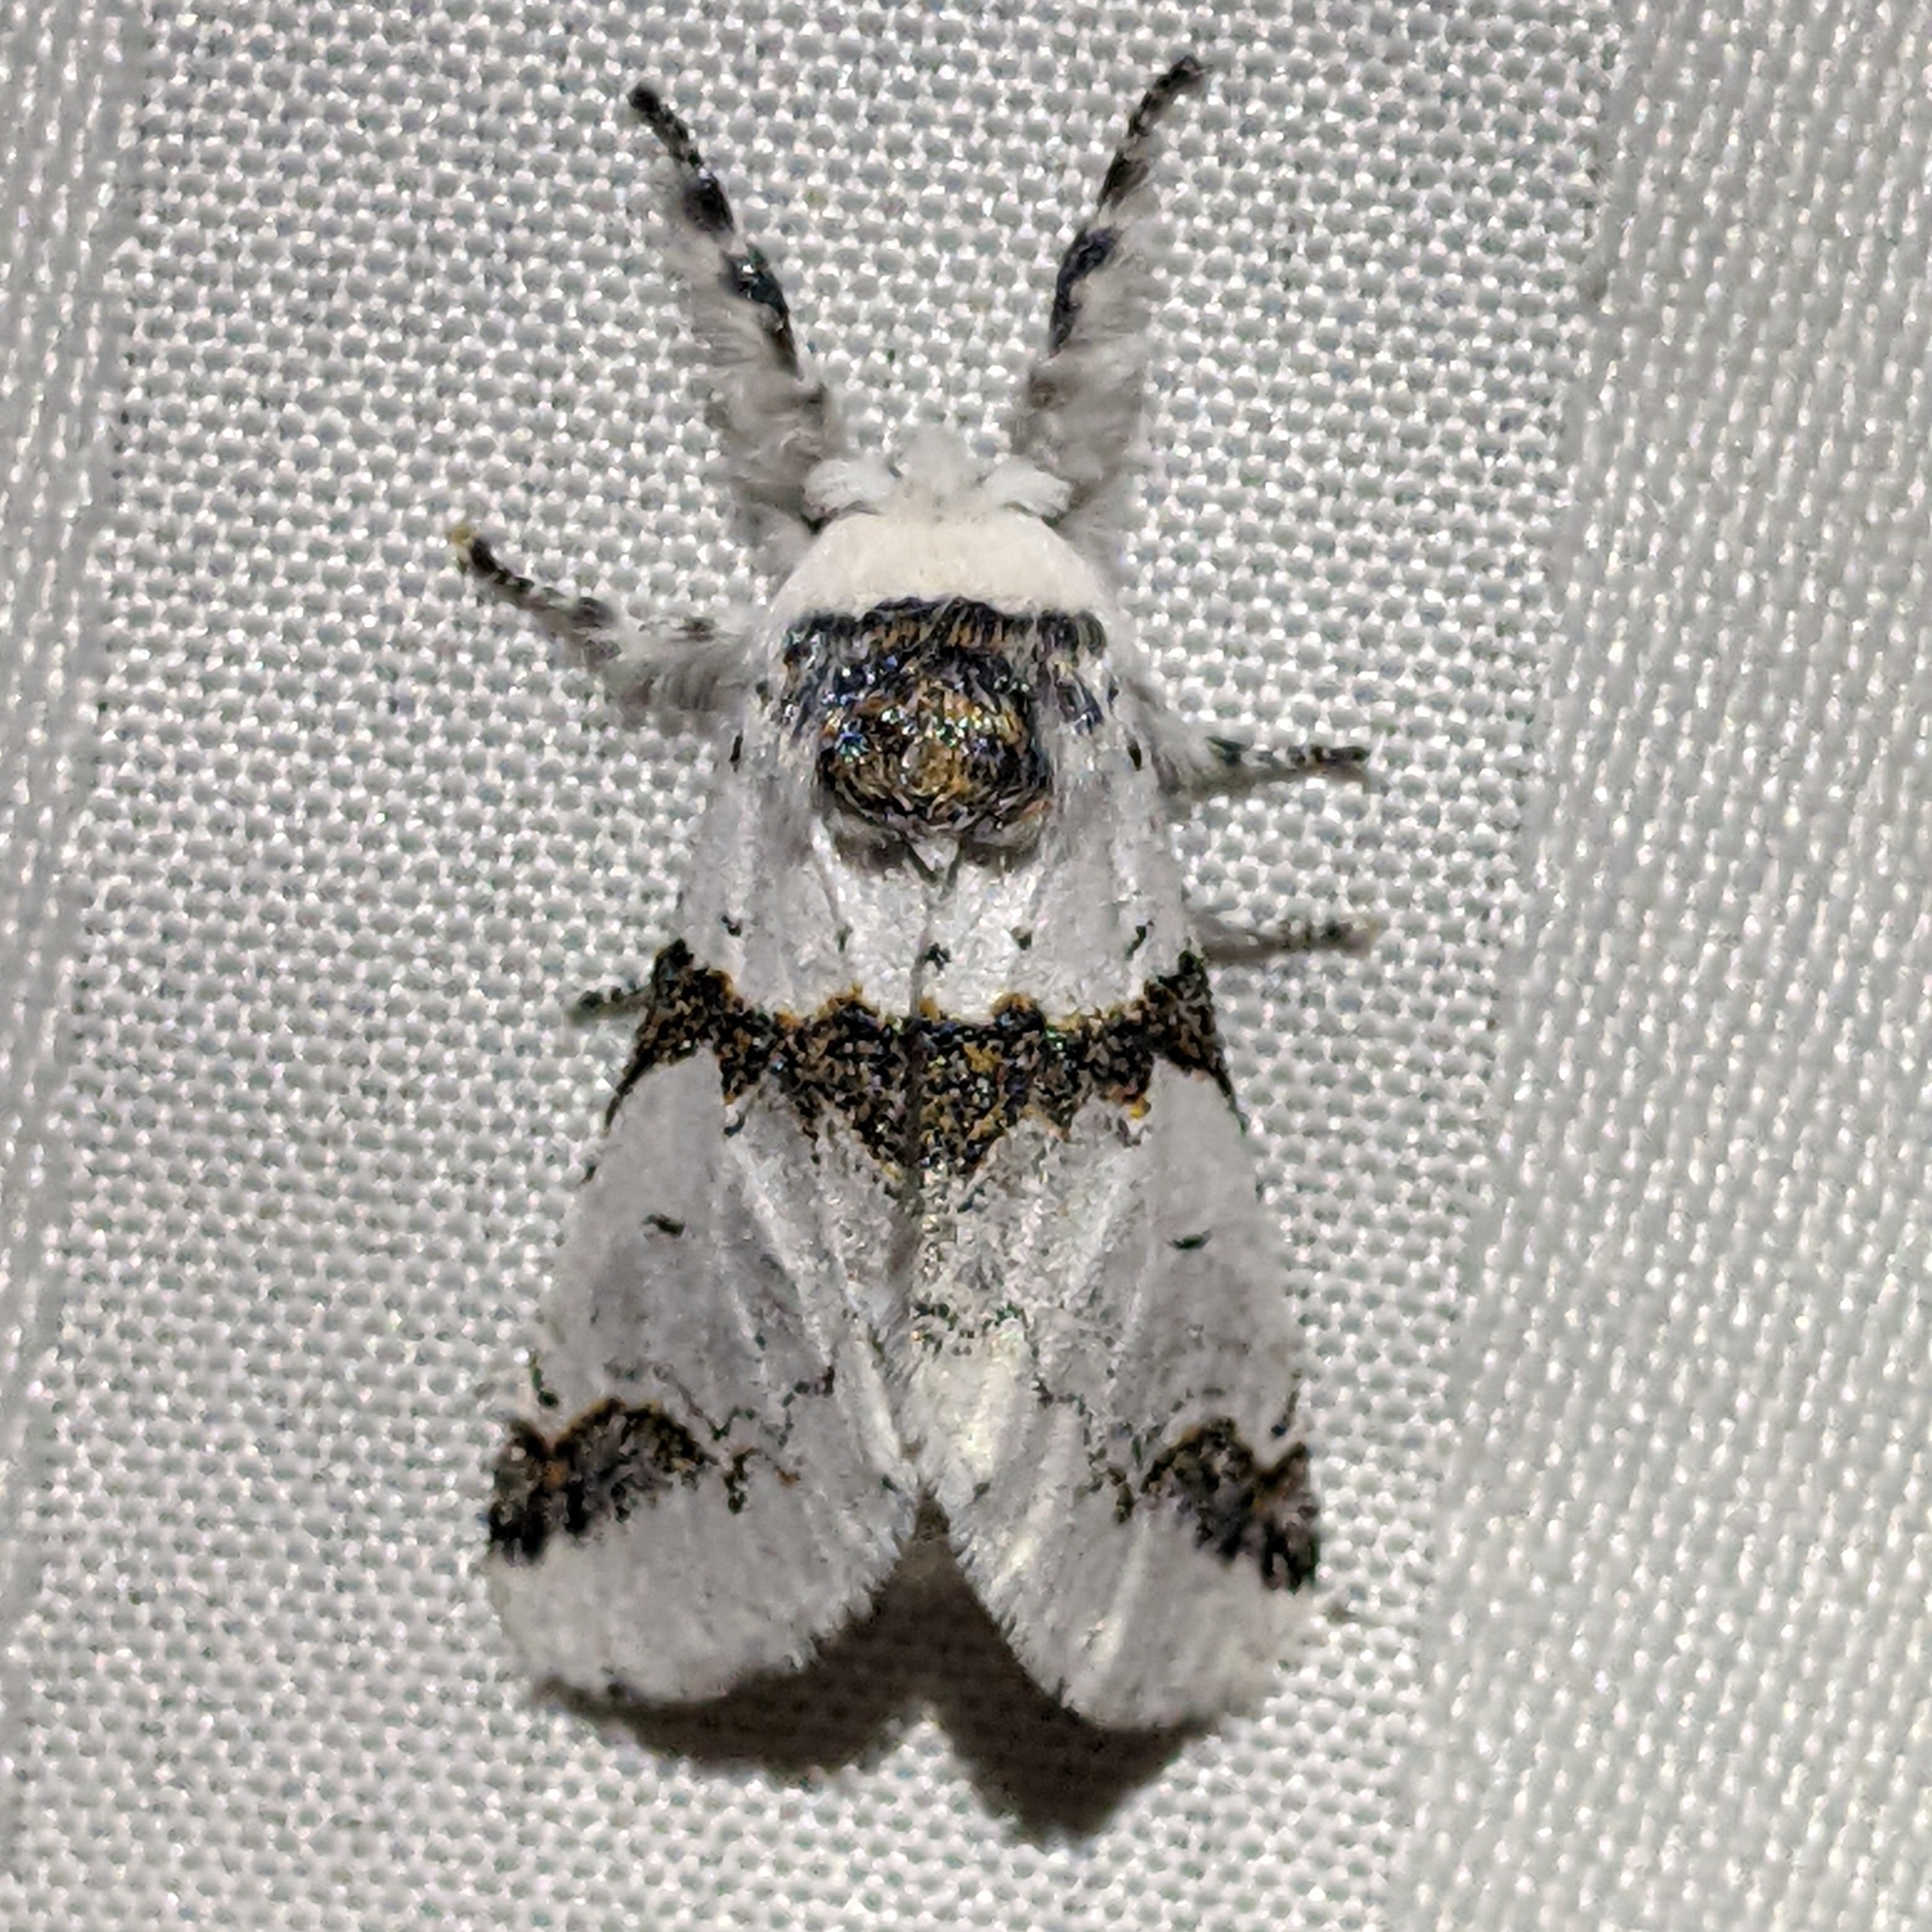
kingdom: Animalia
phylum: Arthropoda
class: Insecta
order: Lepidoptera
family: Notodontidae
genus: Furcula
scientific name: Furcula scolopendrina
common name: Zigzag furcula moth
